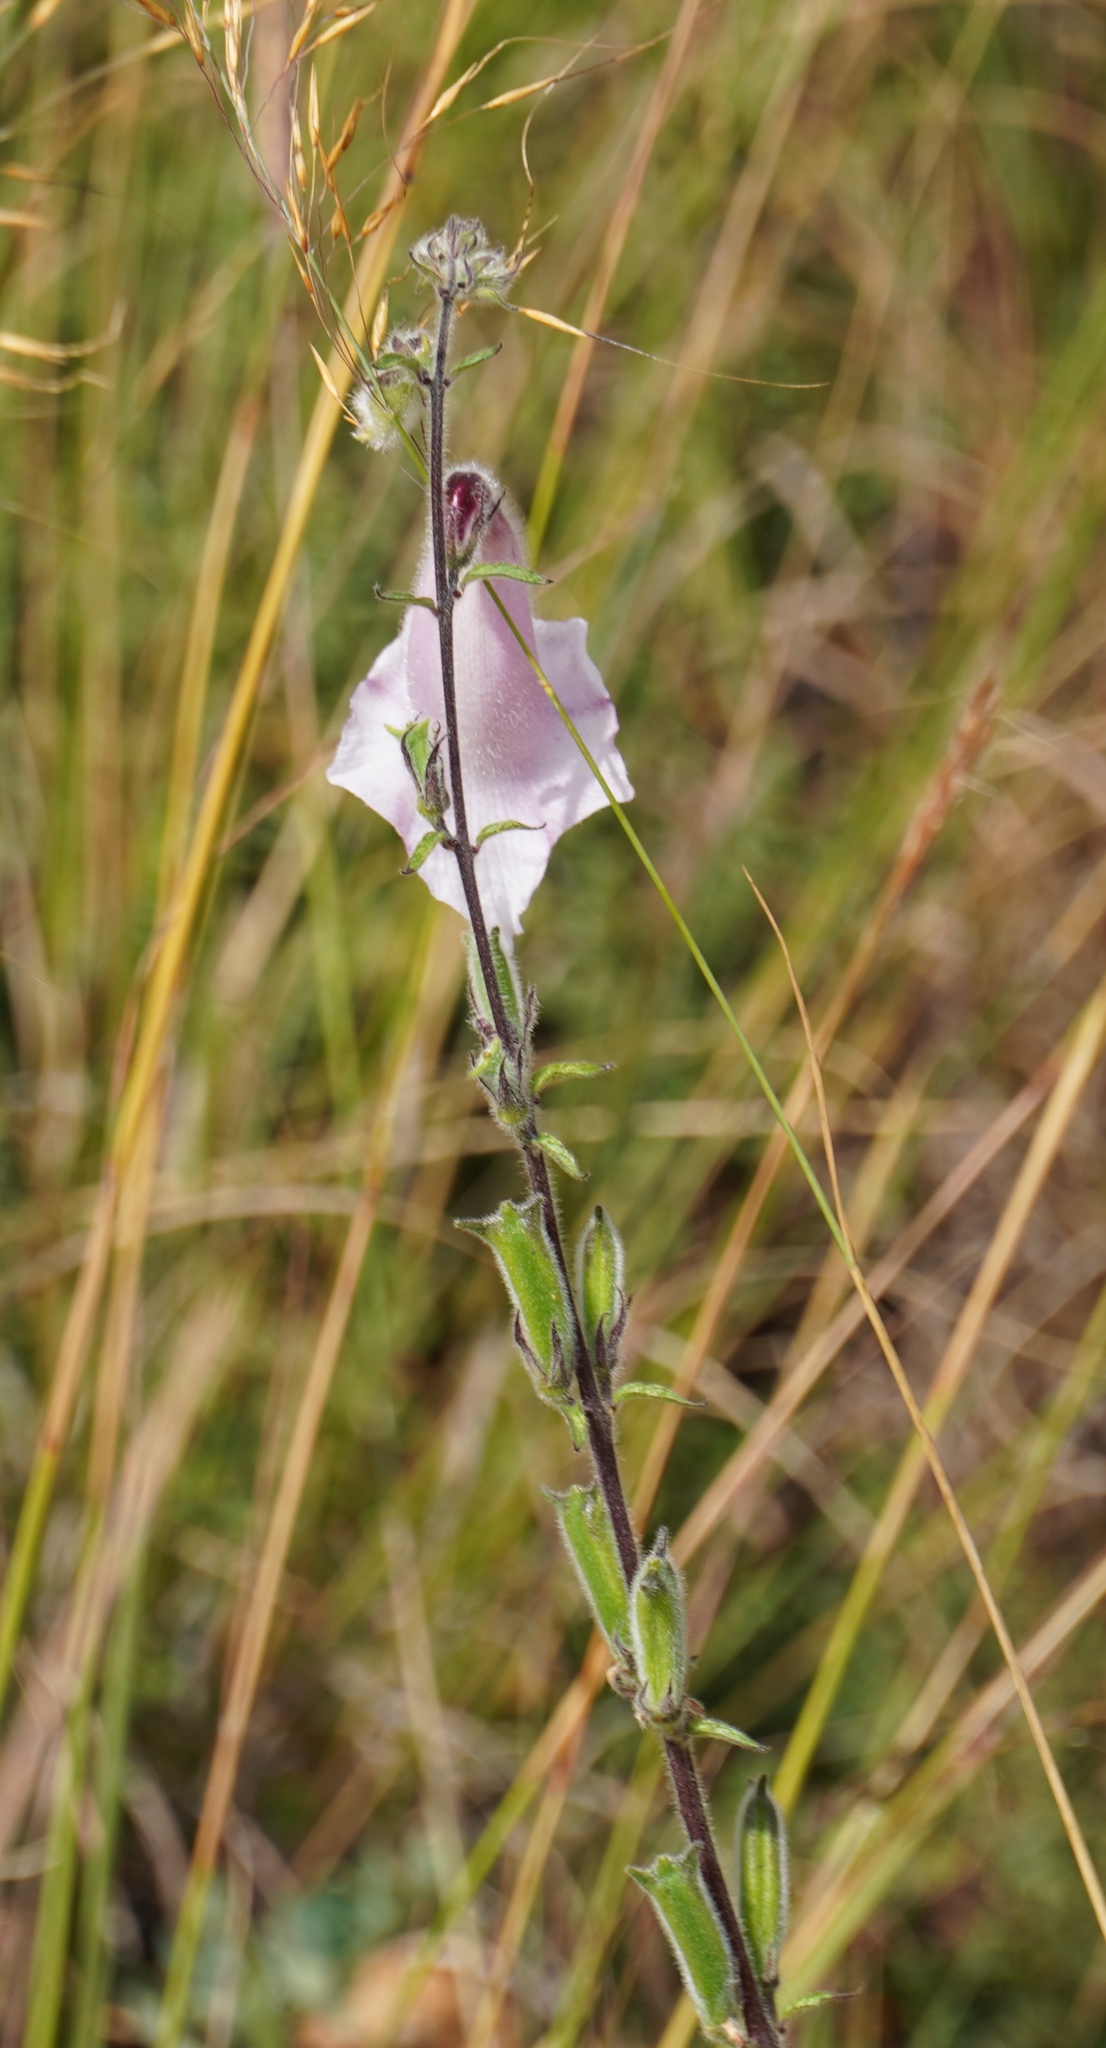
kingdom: Plantae
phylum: Tracheophyta
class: Magnoliopsida
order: Lamiales
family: Pedaliaceae
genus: Sesamum
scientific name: Sesamum trilobum
